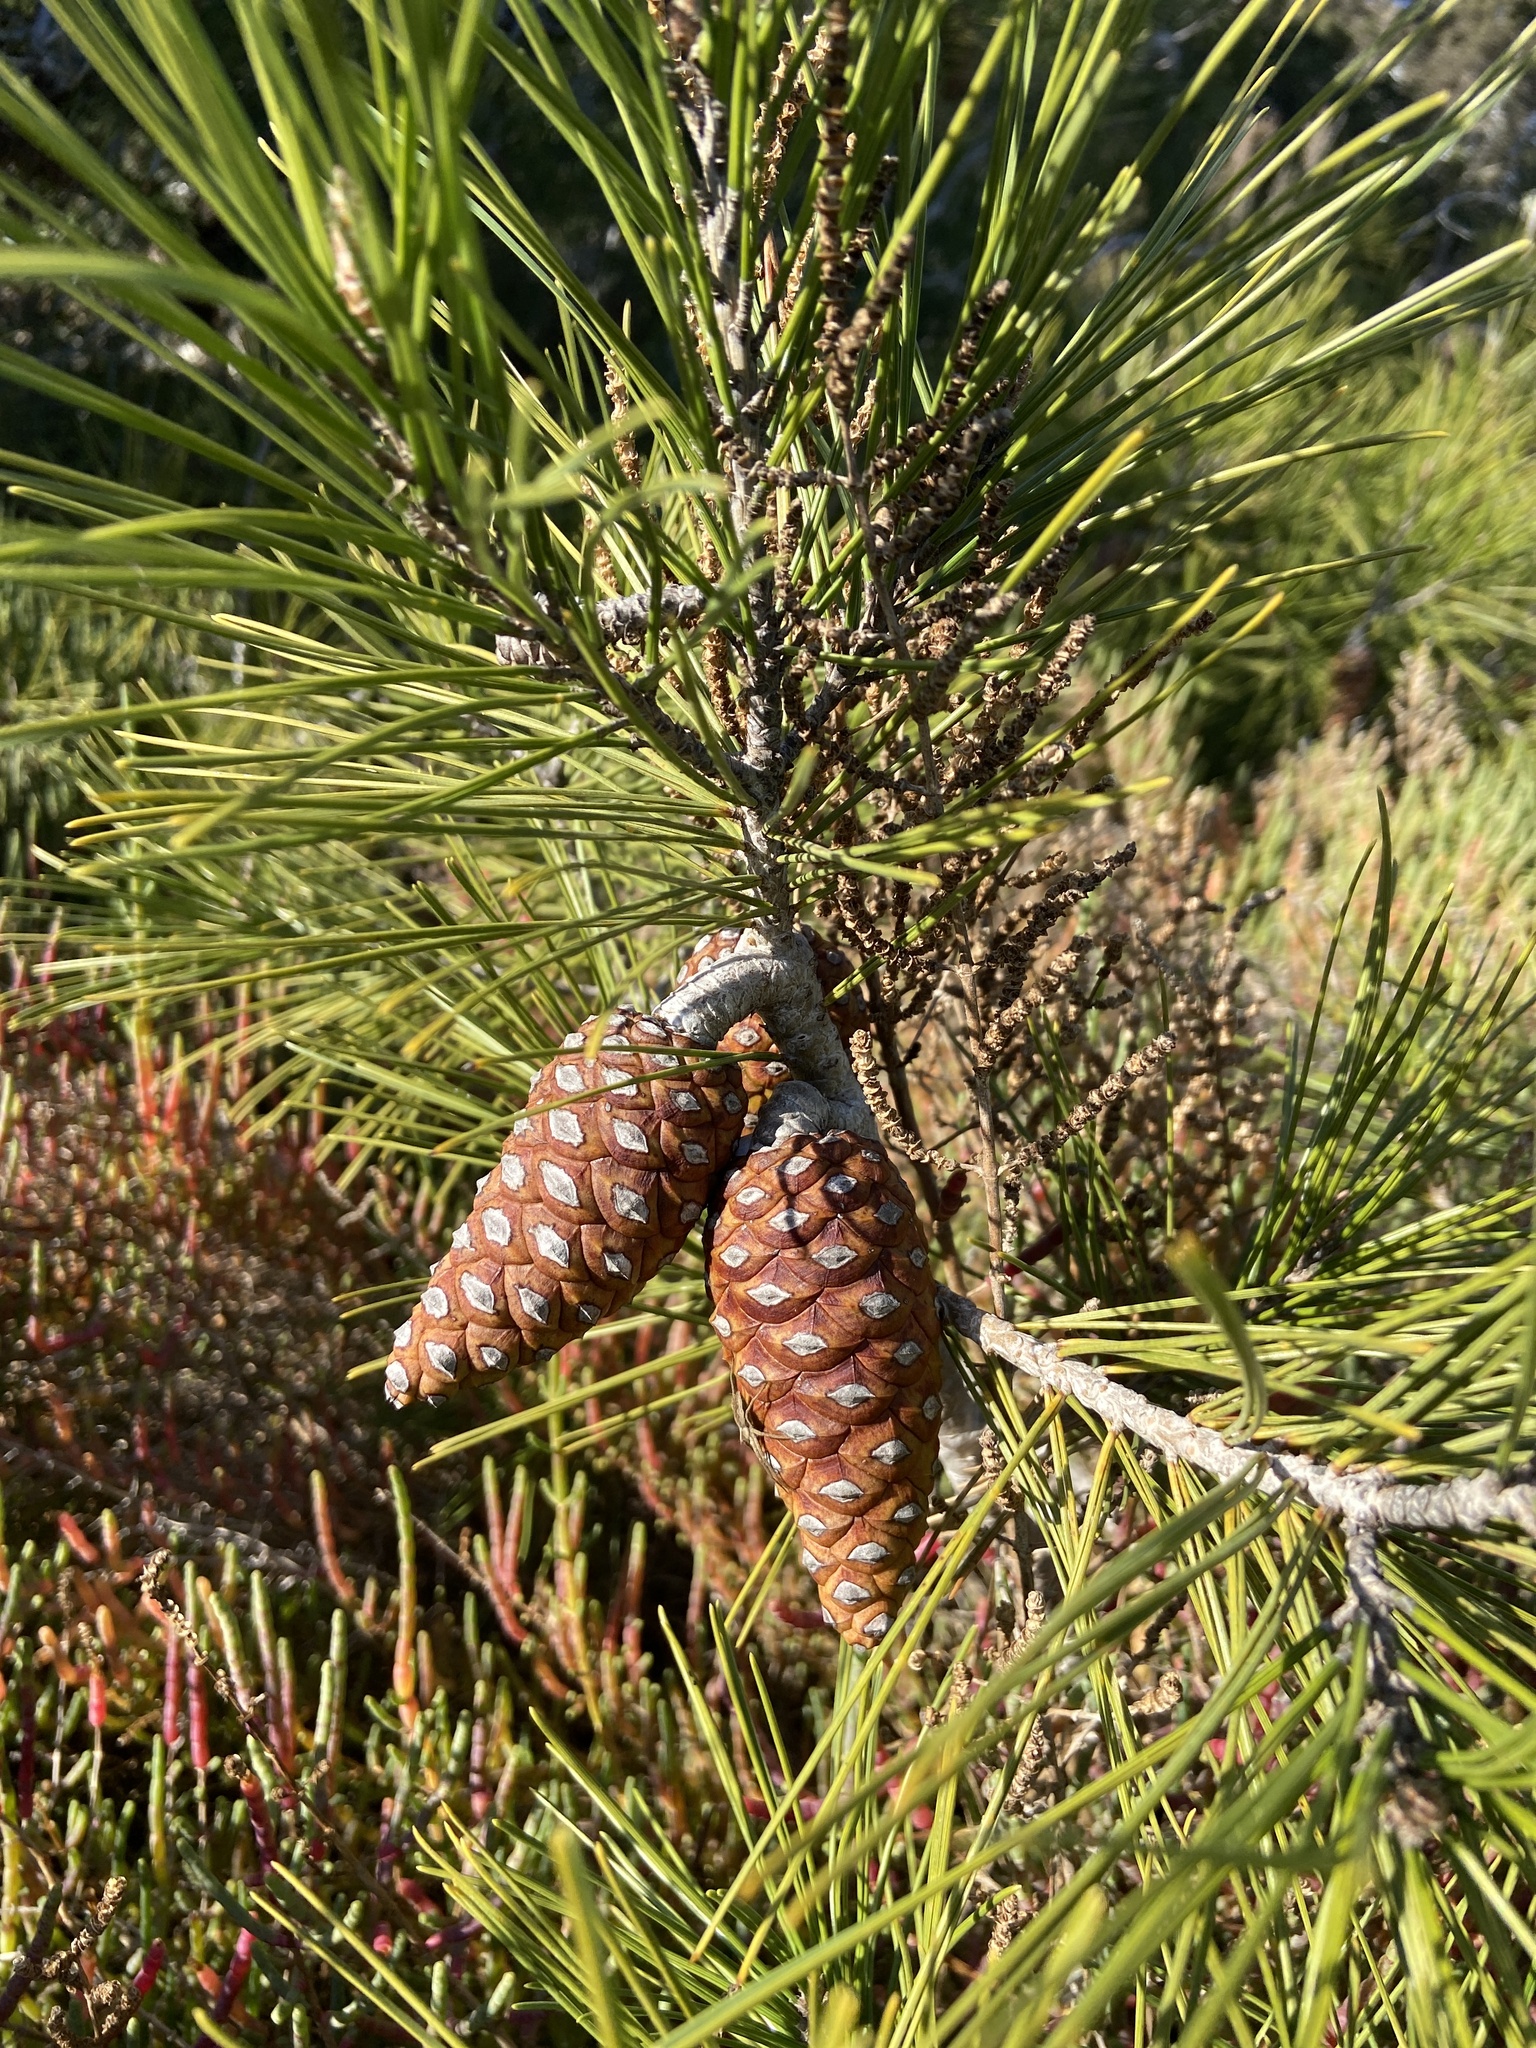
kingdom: Plantae
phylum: Tracheophyta
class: Pinopsida
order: Pinales
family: Pinaceae
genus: Pinus
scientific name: Pinus halepensis
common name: Aleppo pine
